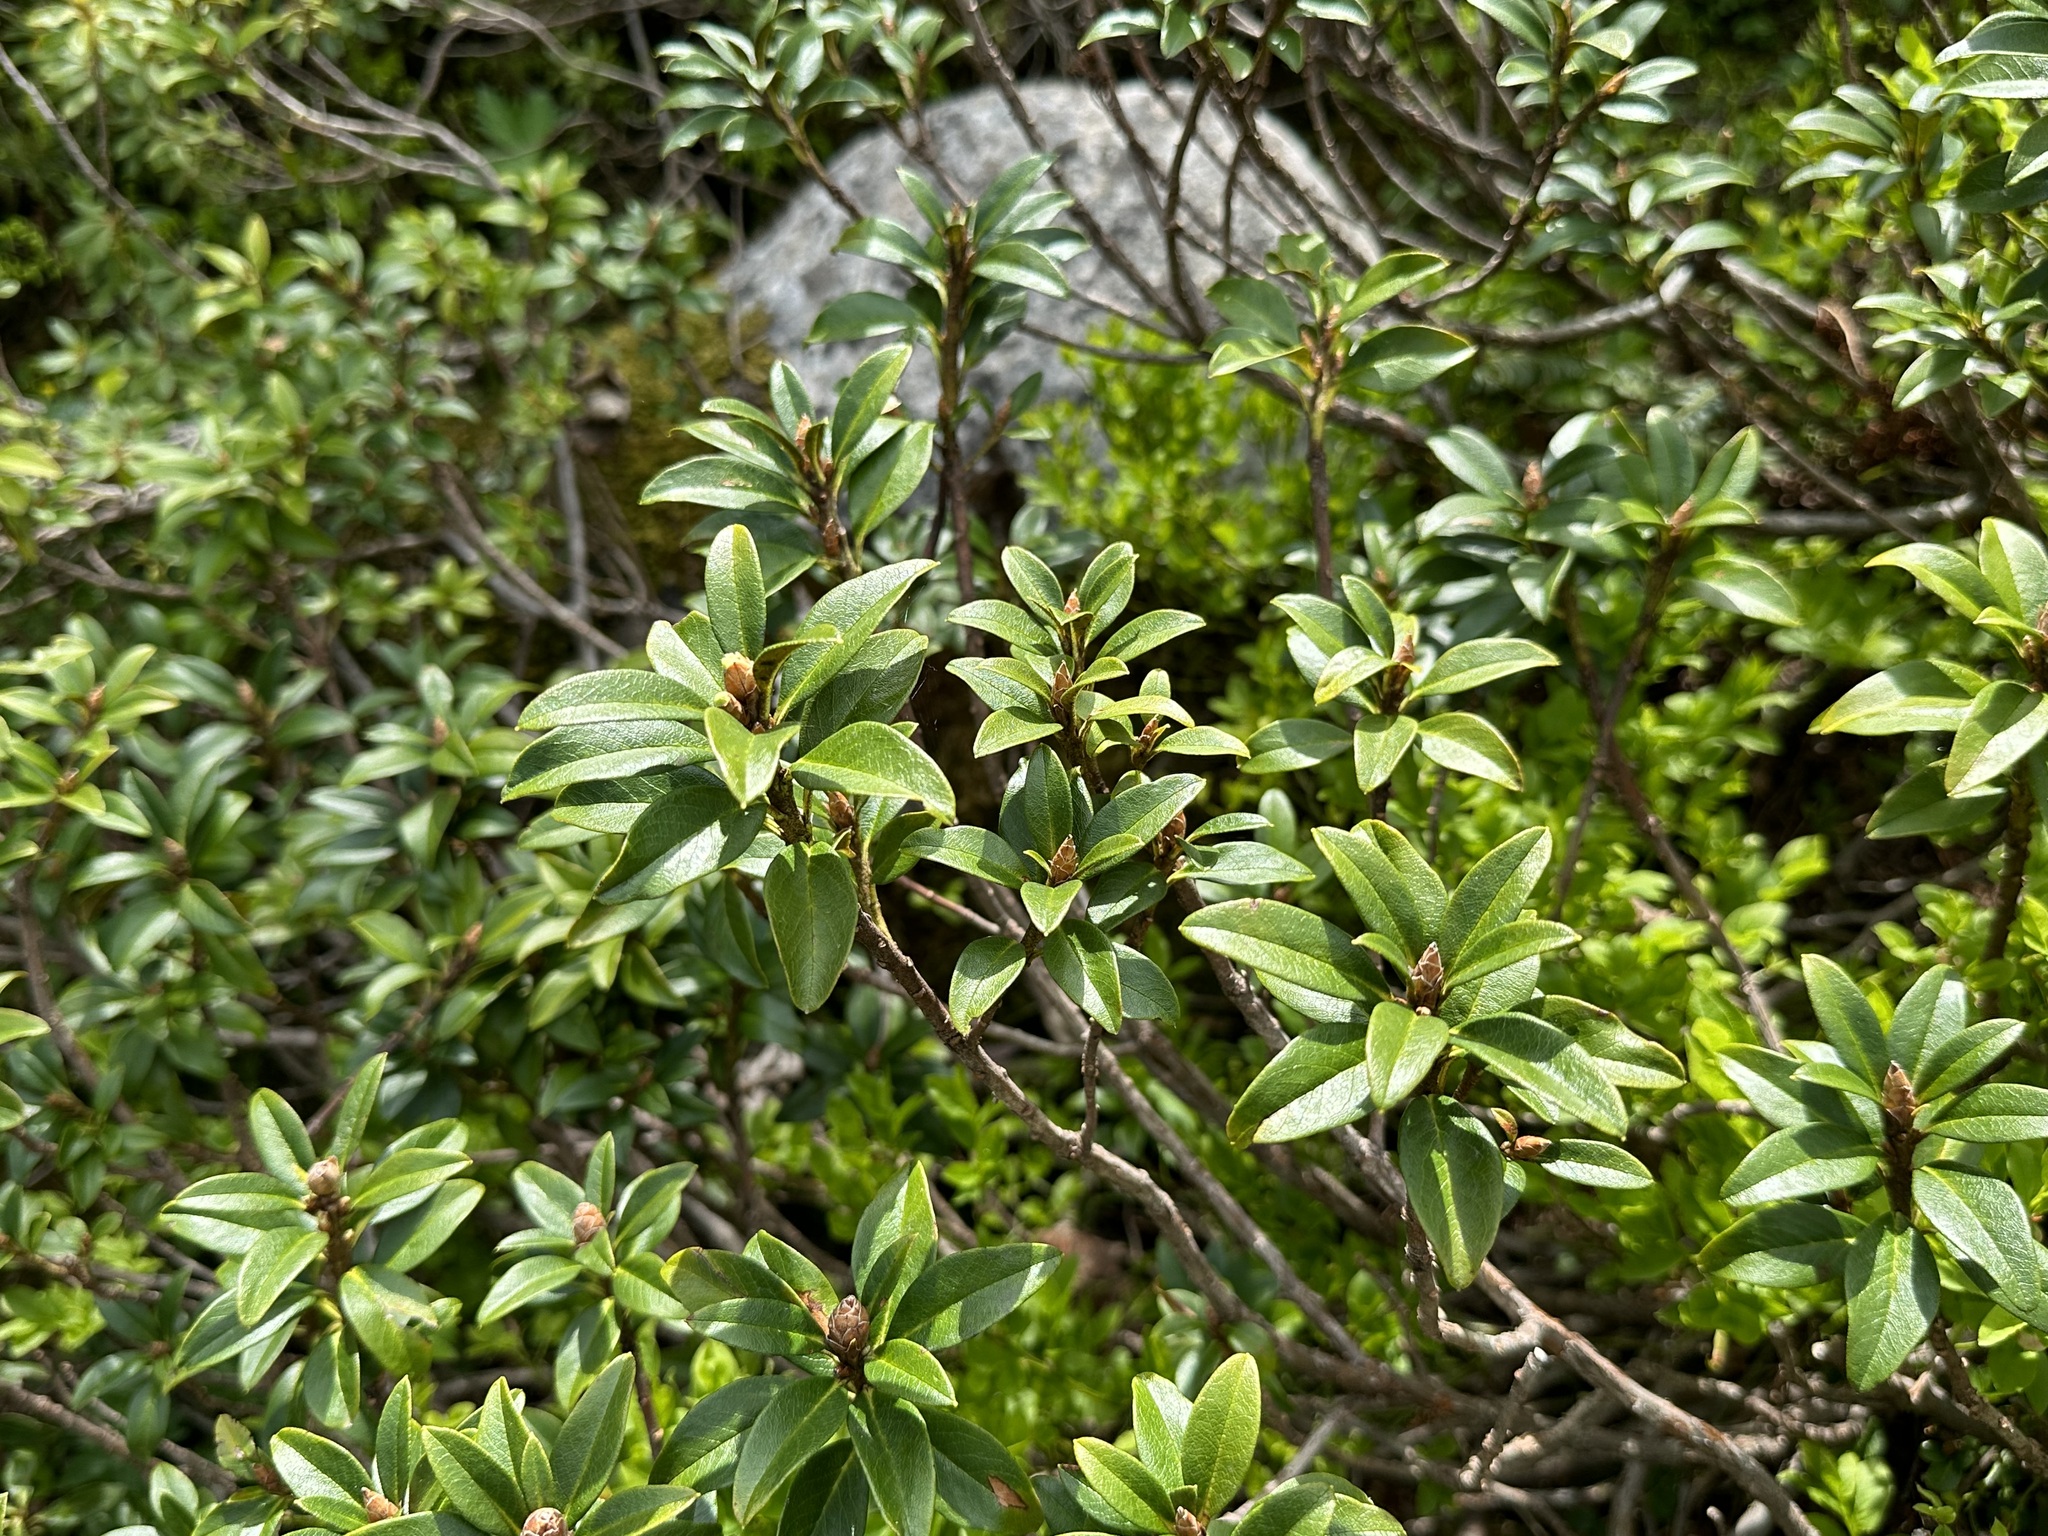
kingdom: Plantae
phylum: Tracheophyta
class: Magnoliopsida
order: Ericales
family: Ericaceae
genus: Rhododendron
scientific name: Rhododendron ferrugineum
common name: Alpenrose
